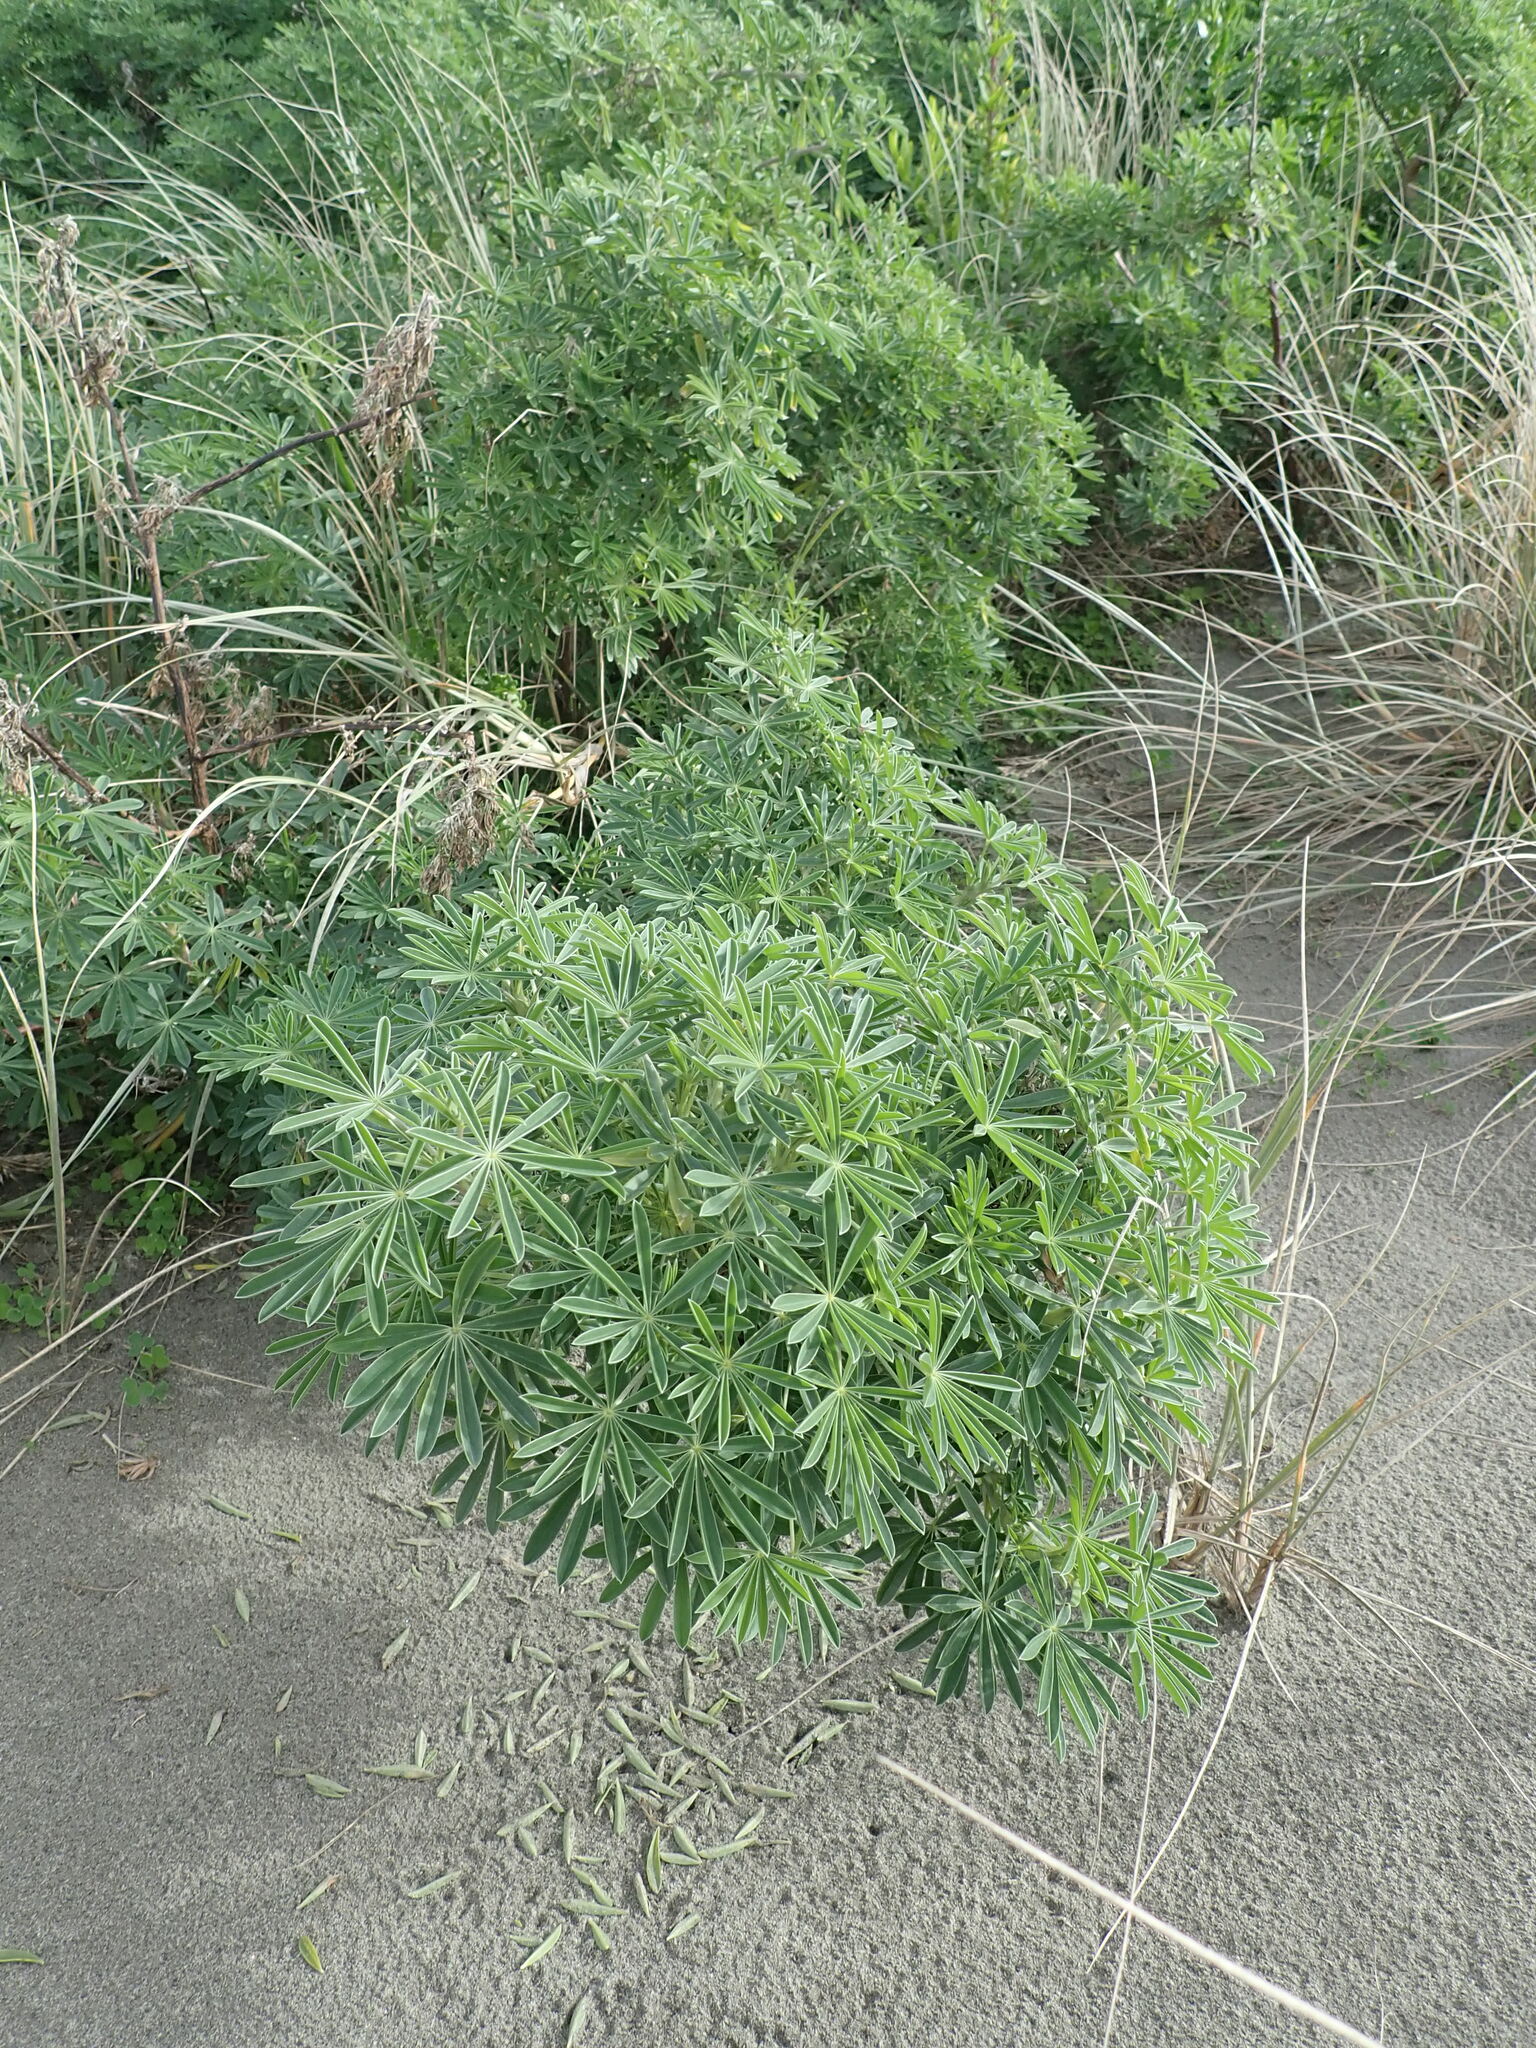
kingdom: Plantae
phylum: Tracheophyta
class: Magnoliopsida
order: Fabales
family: Fabaceae
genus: Lupinus
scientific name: Lupinus arboreus
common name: Yellow bush lupine
